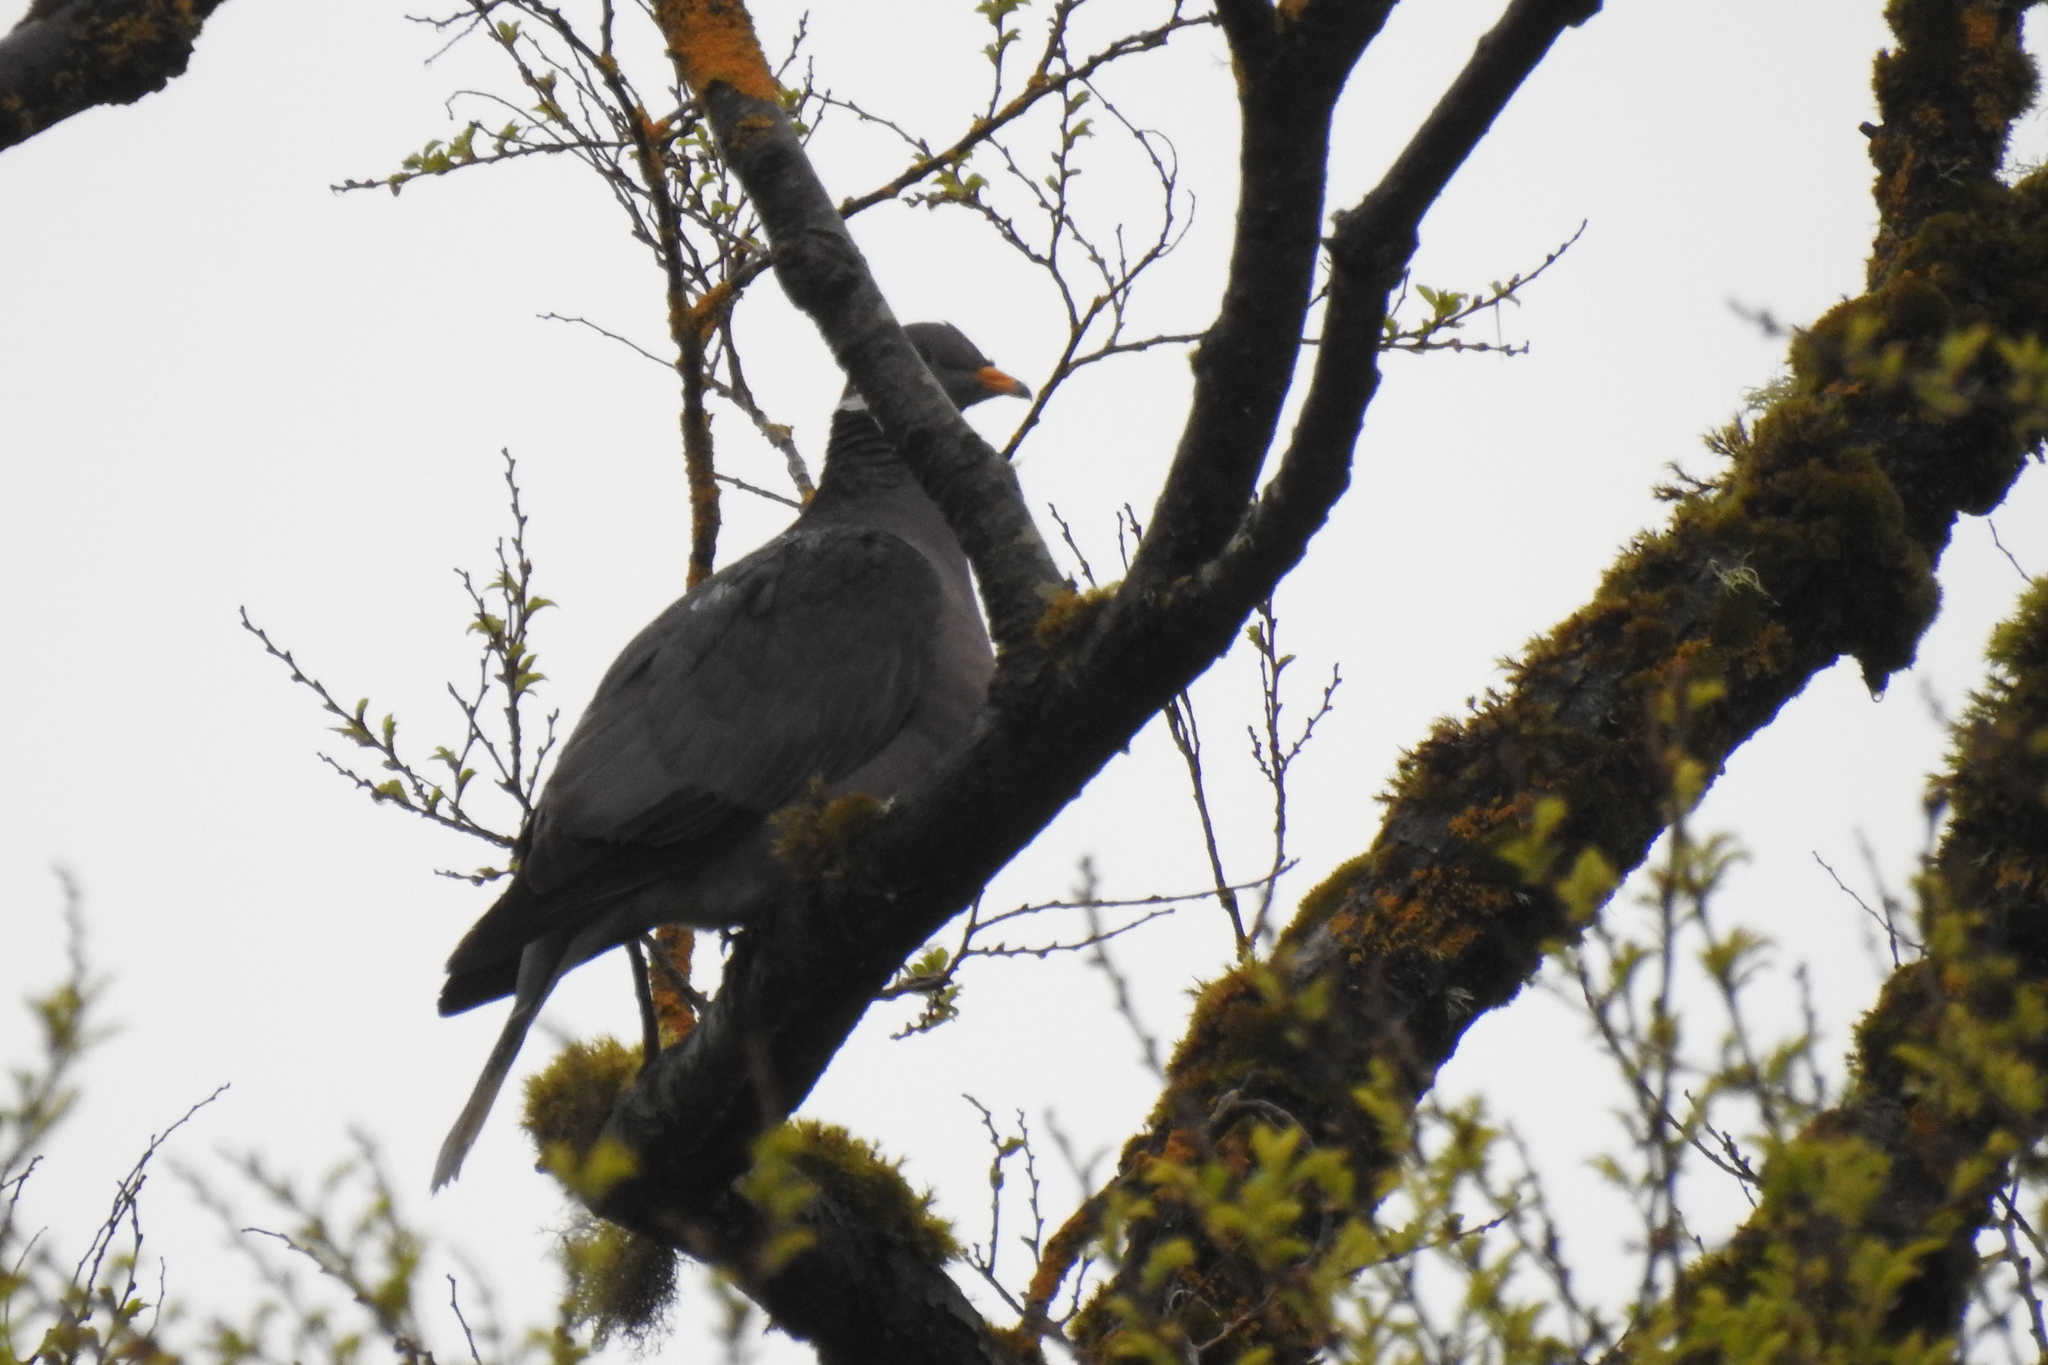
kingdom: Animalia
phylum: Chordata
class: Aves
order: Columbiformes
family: Columbidae
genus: Patagioenas
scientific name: Patagioenas fasciata
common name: Band-tailed pigeon
